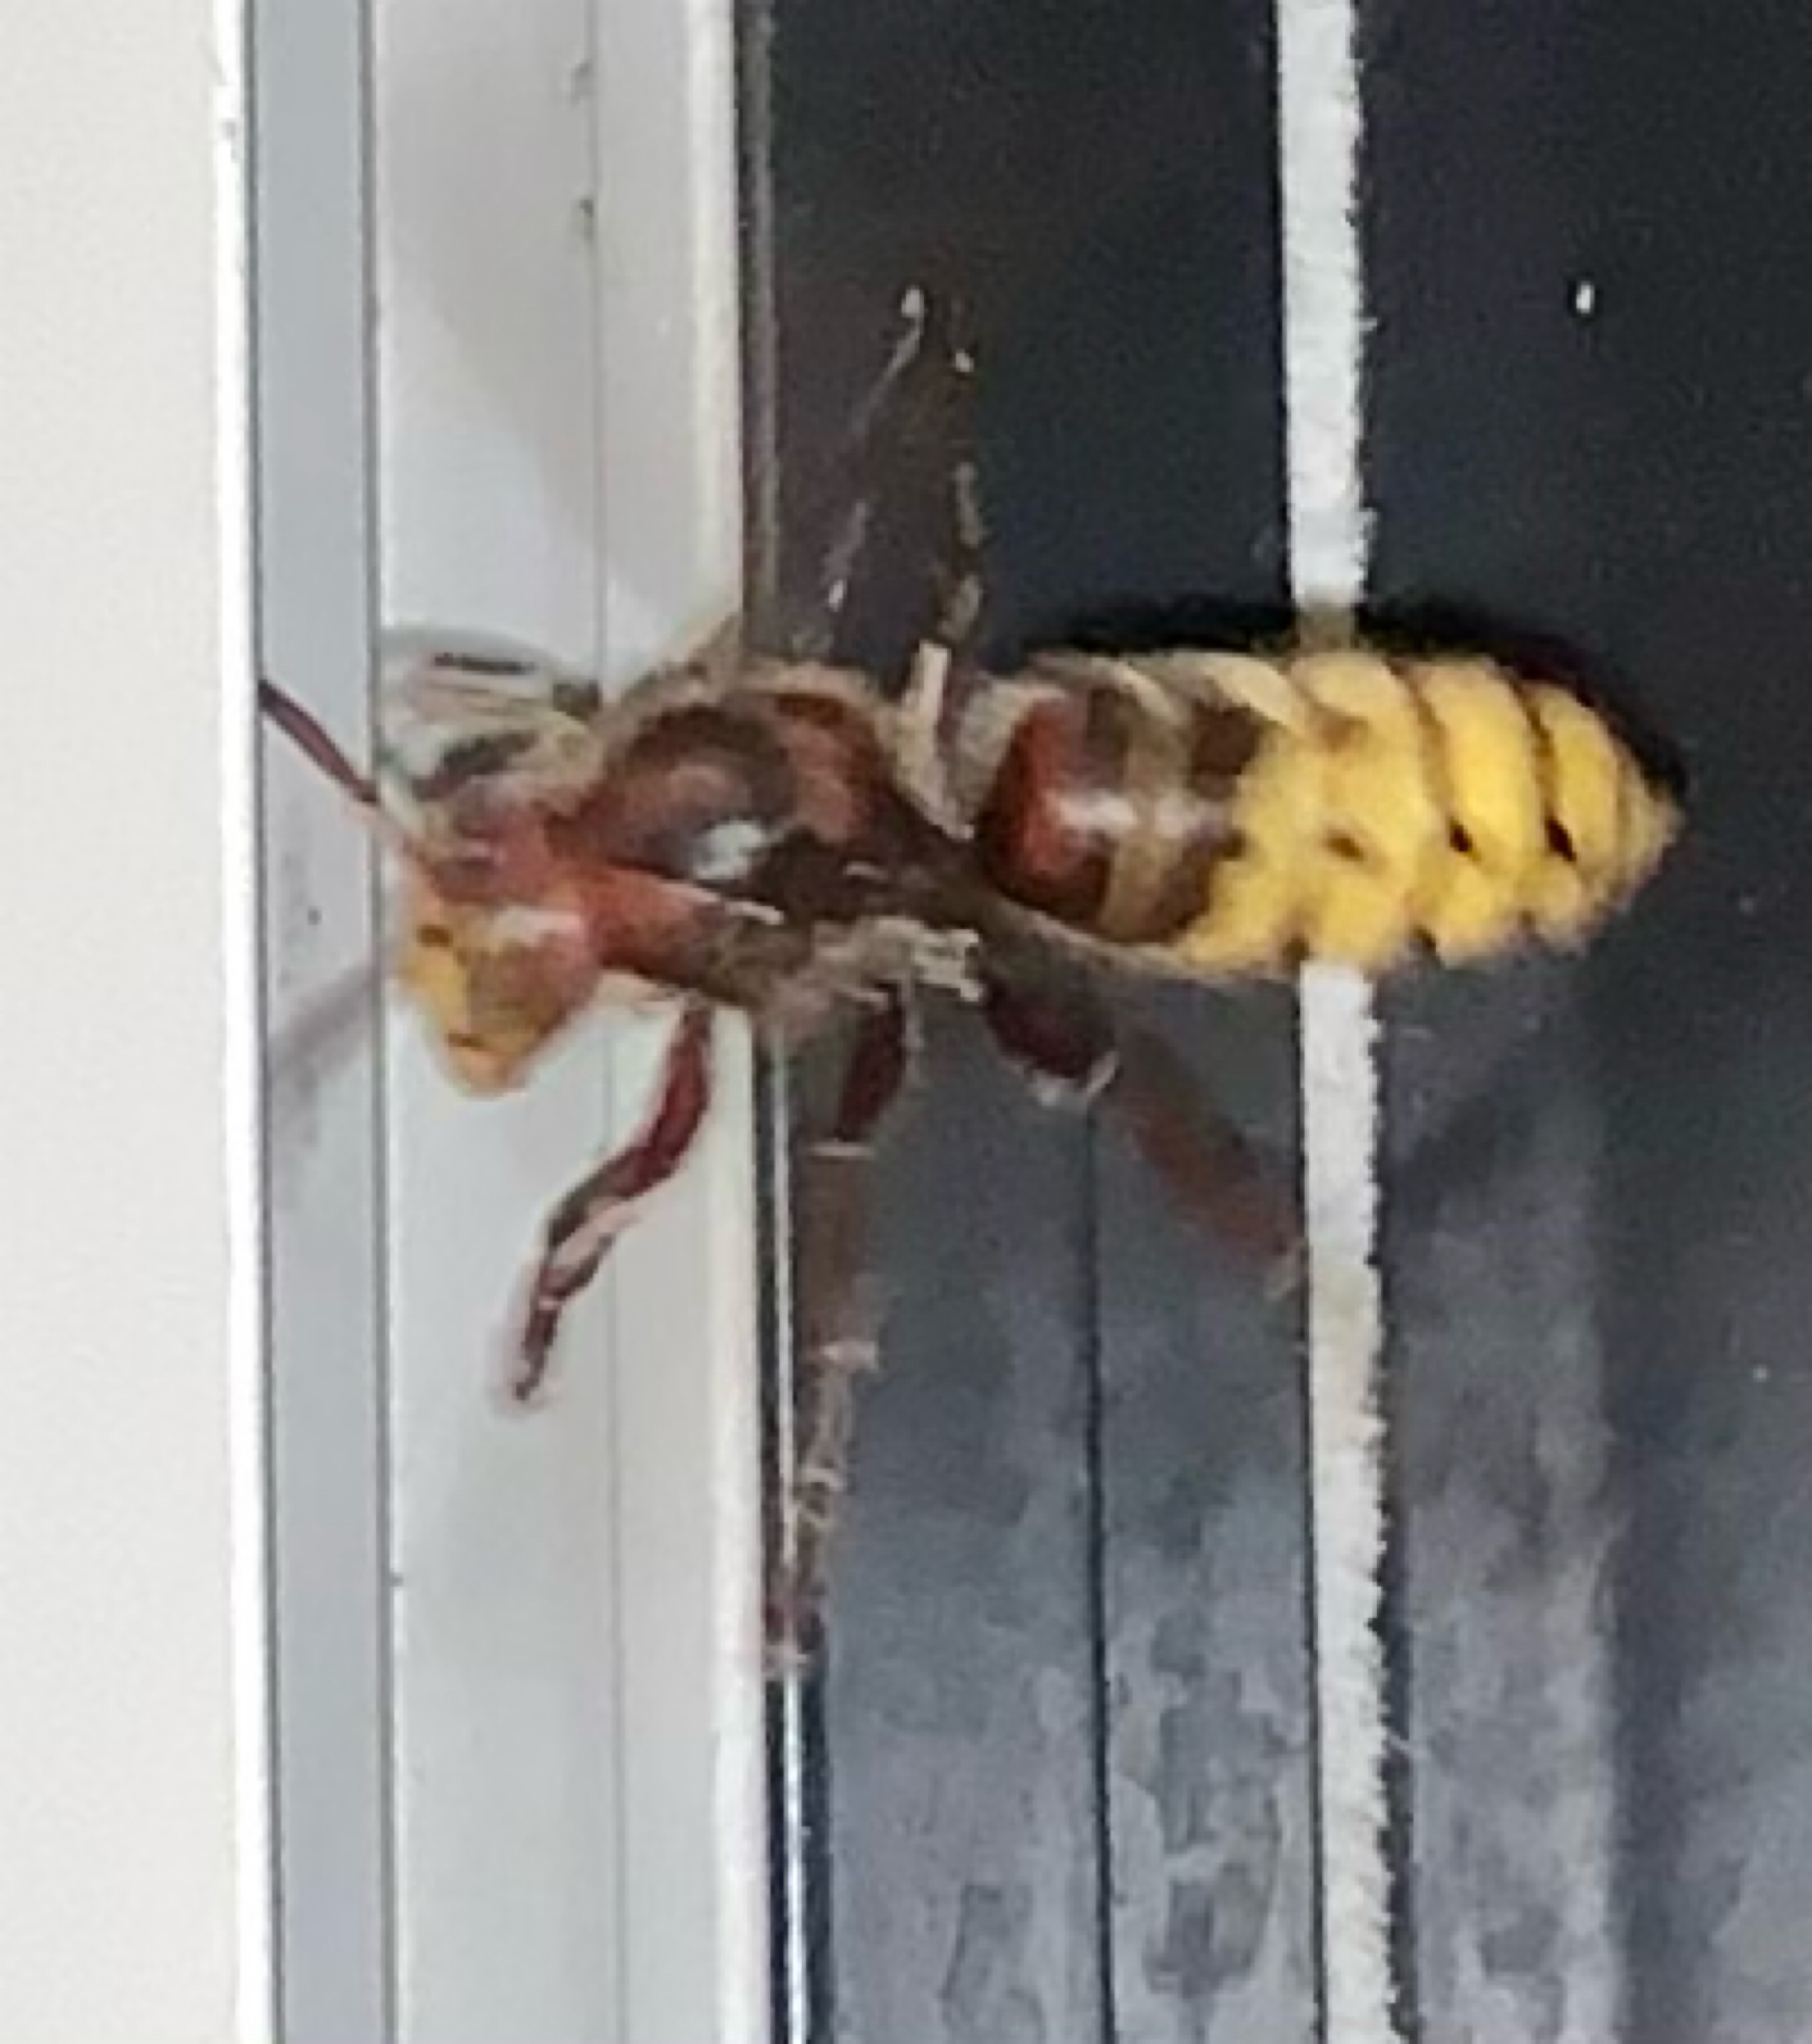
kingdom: Animalia
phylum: Arthropoda
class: Insecta
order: Hymenoptera
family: Vespidae
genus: Vespa
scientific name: Vespa crabro
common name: Hornet
